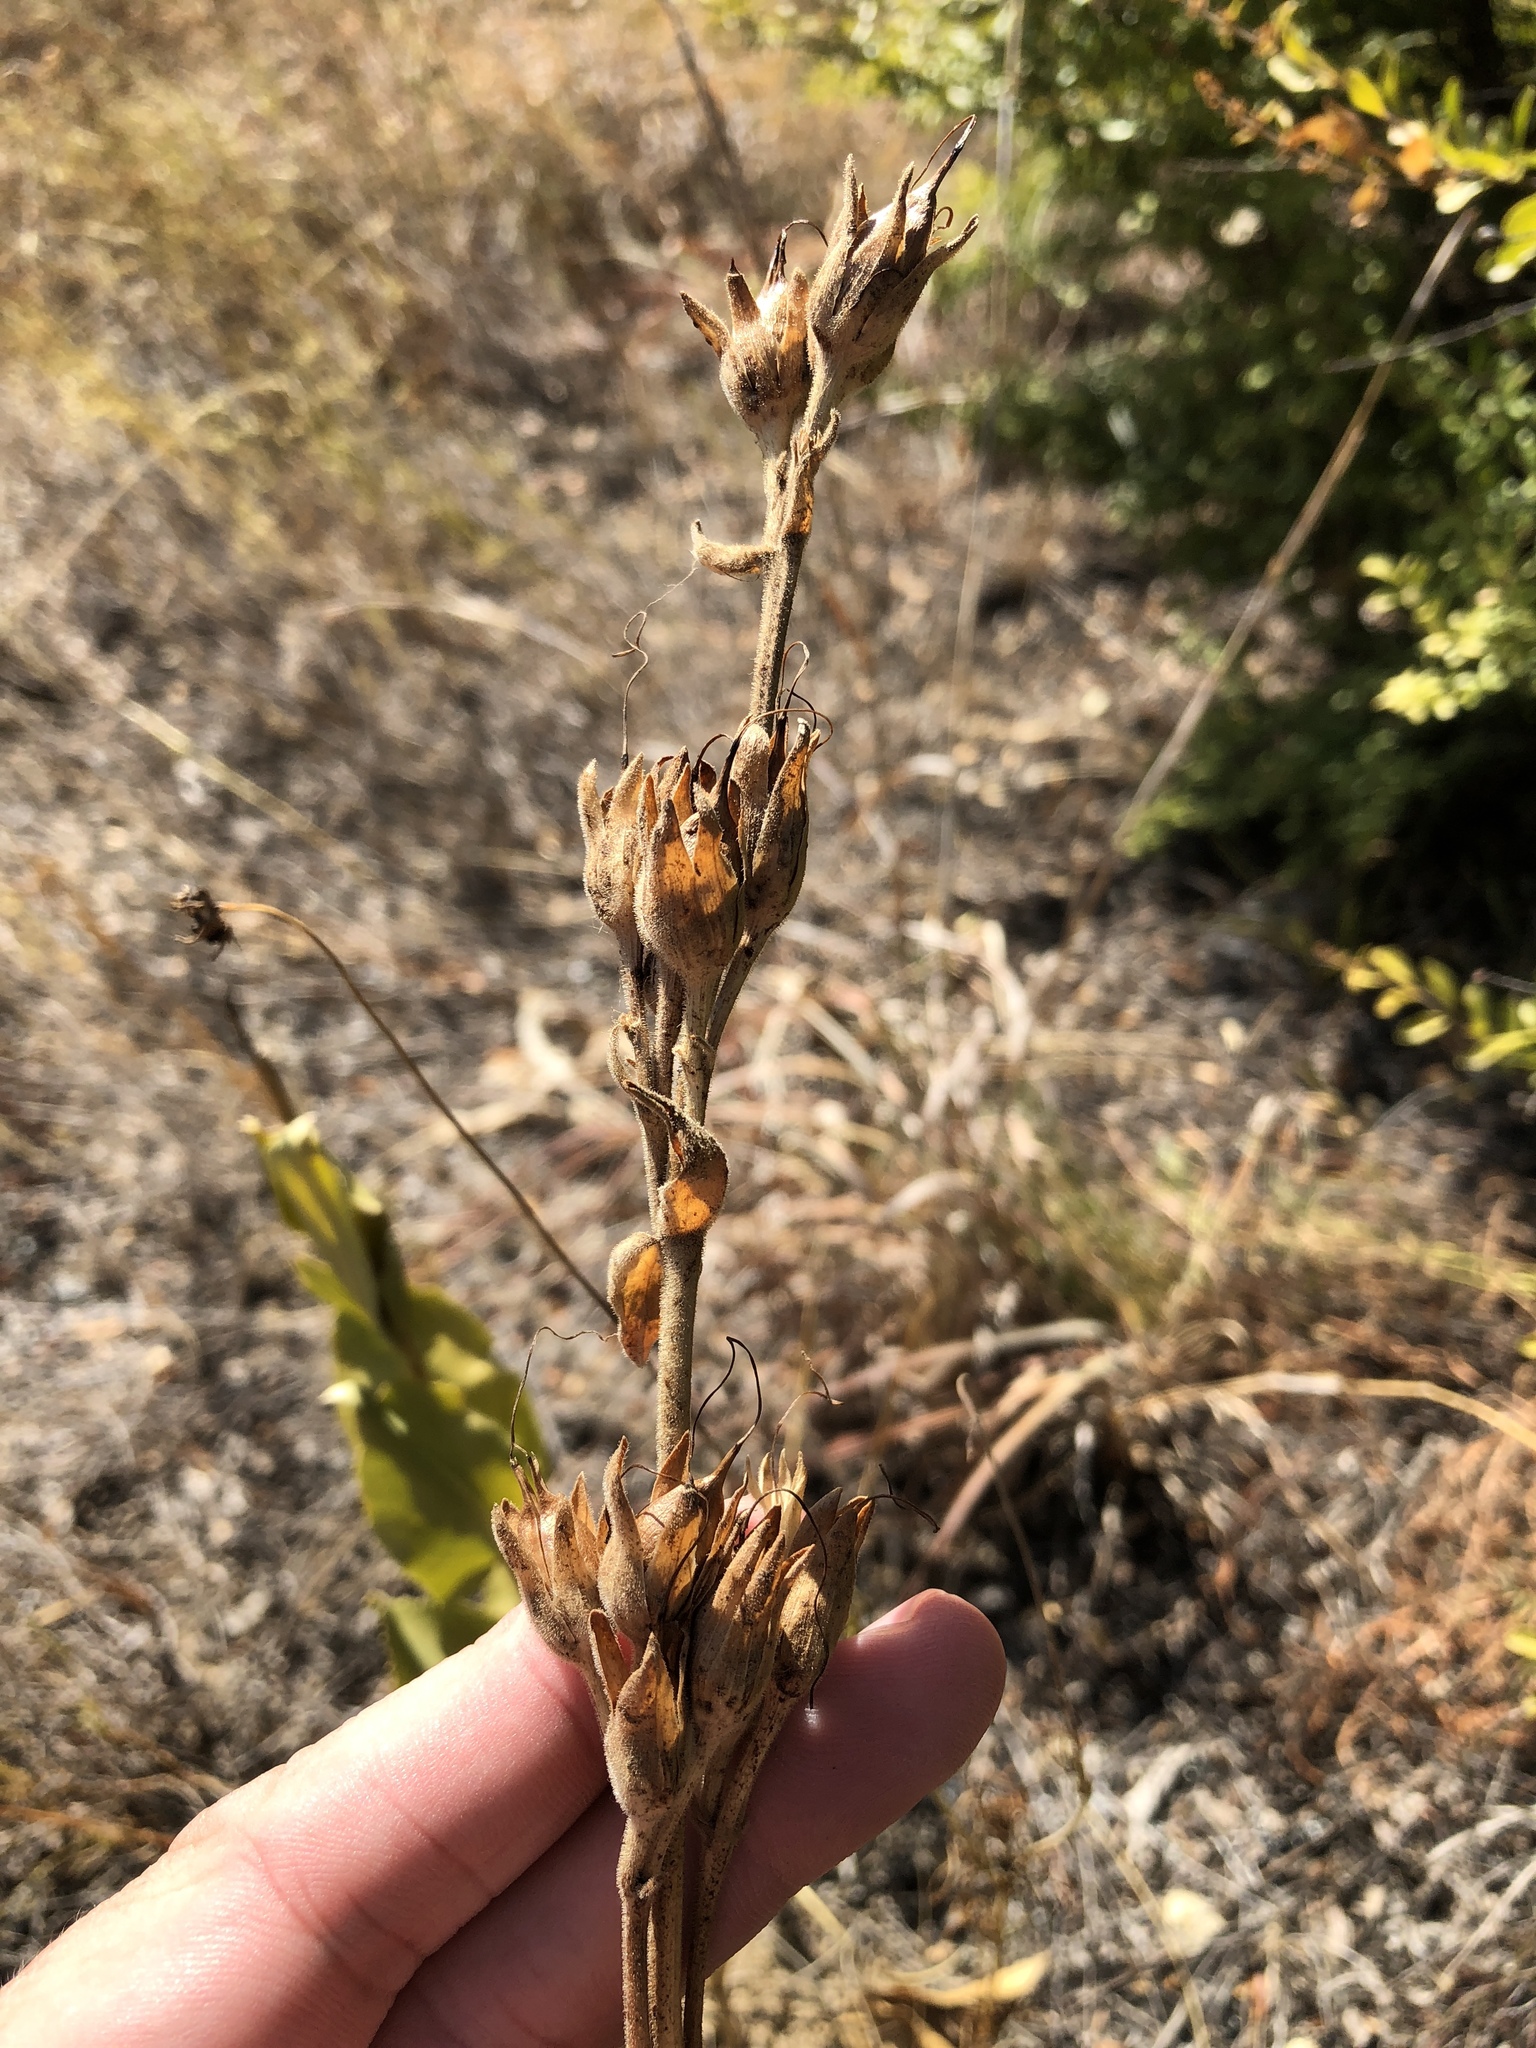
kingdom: Plantae
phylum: Tracheophyta
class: Magnoliopsida
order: Lamiales
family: Plantaginaceae
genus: Penstemon
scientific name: Penstemon cobaea
